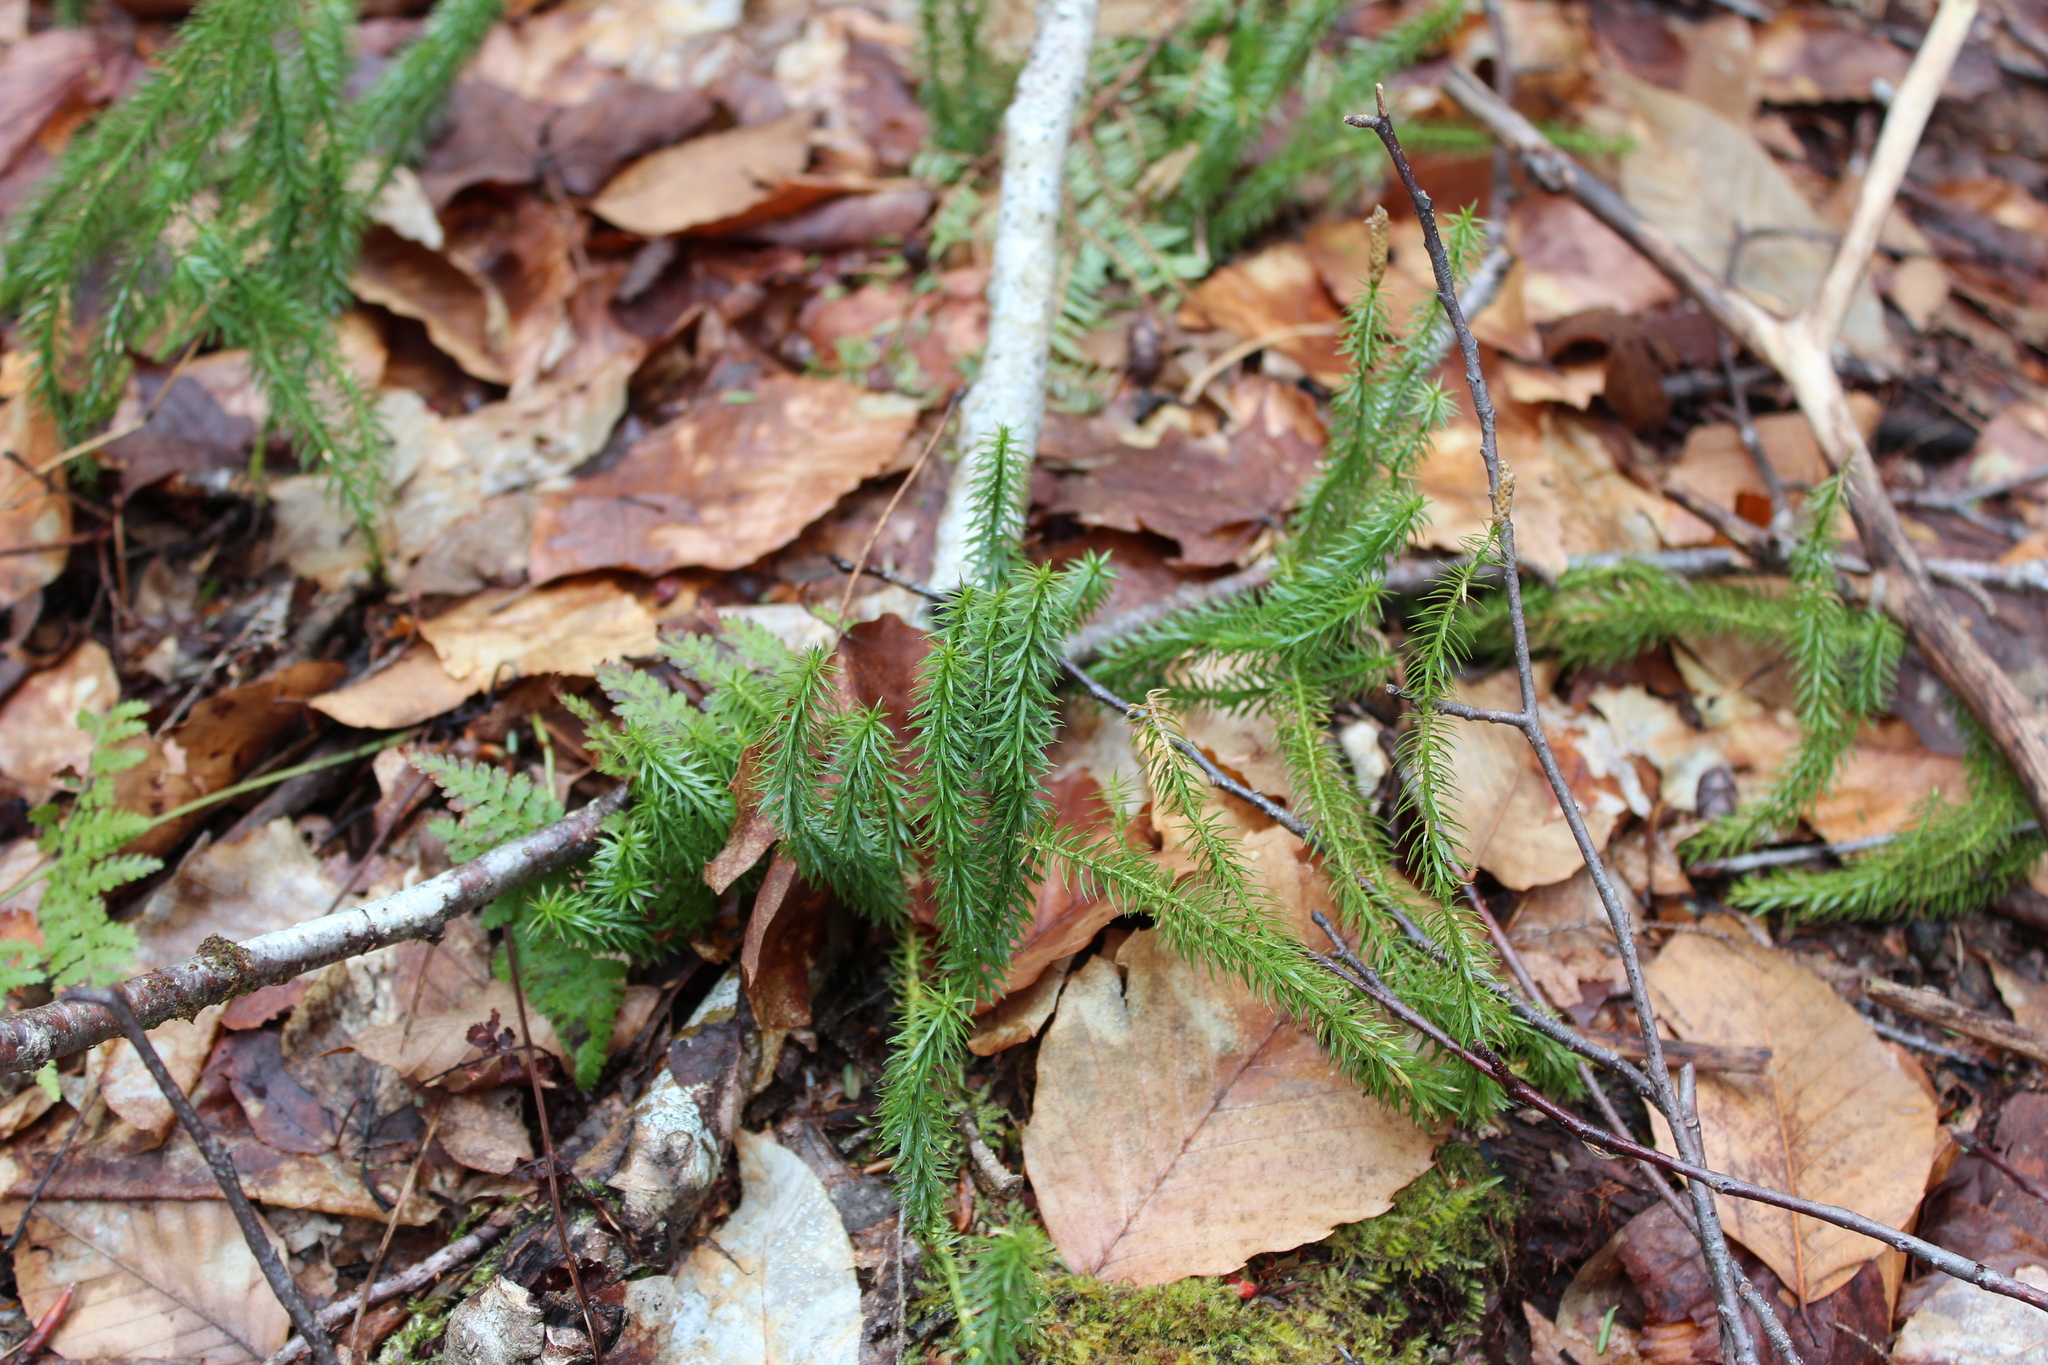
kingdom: Plantae
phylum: Tracheophyta
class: Lycopodiopsida
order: Lycopodiales
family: Lycopodiaceae
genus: Spinulum
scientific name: Spinulum annotinum
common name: Interrupted club-moss
